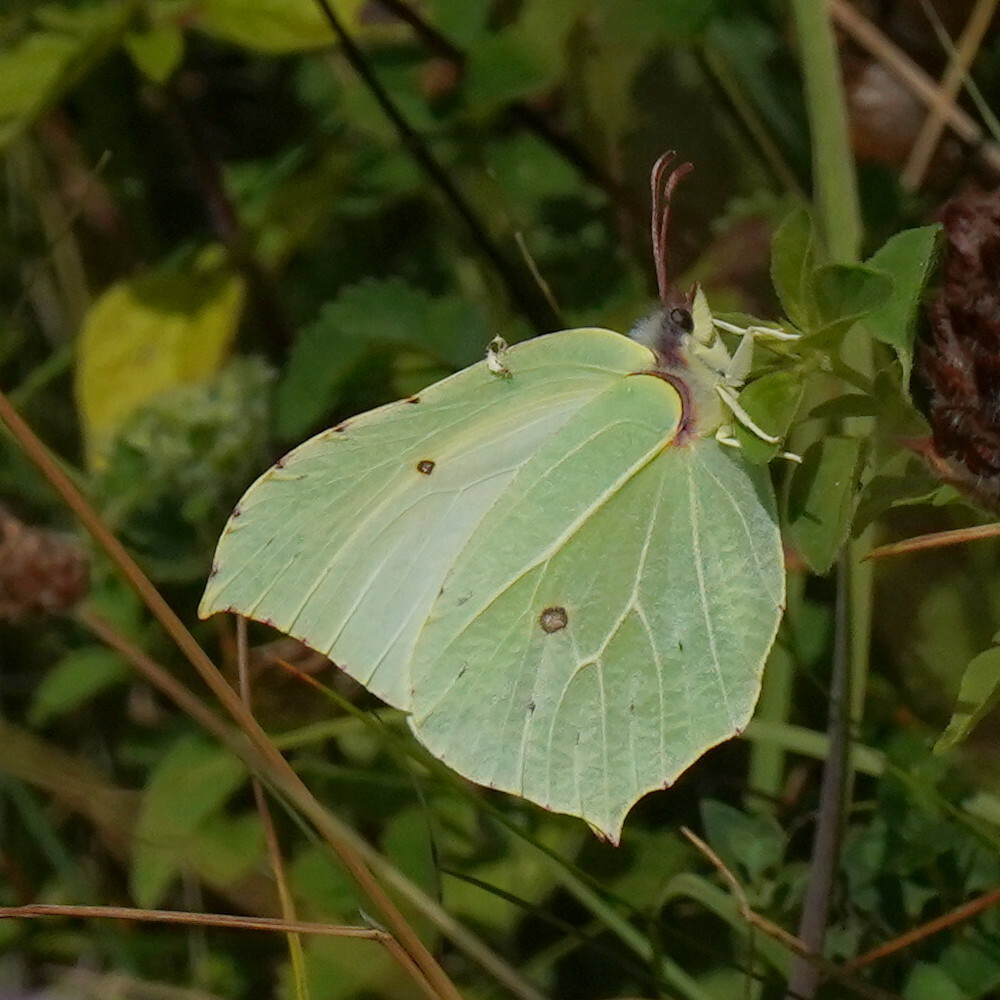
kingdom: Animalia
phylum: Arthropoda
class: Insecta
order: Lepidoptera
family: Pieridae
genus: Gonepteryx
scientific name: Gonepteryx rhamni
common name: Brimstone
